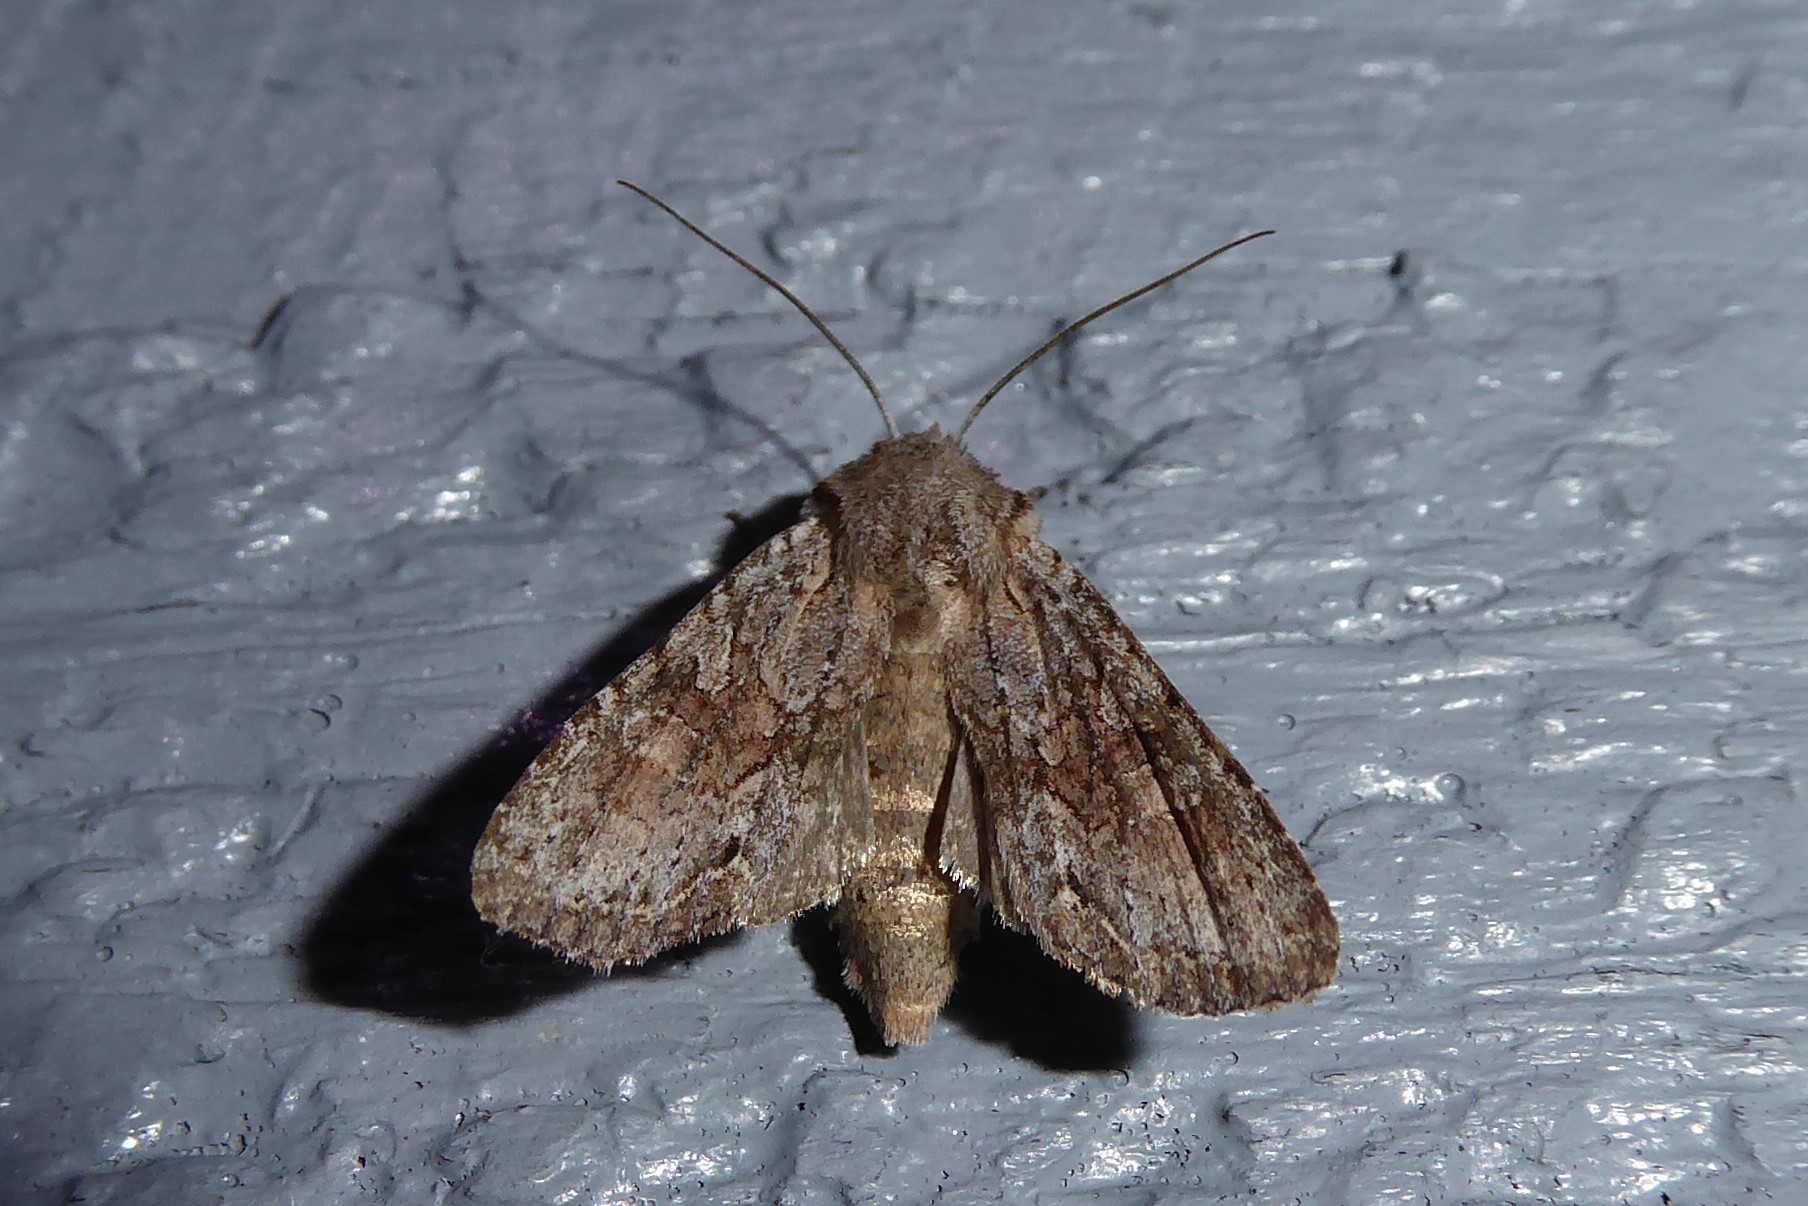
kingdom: Animalia
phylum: Arthropoda
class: Insecta
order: Lepidoptera
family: Noctuidae
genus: Ichneutica
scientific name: Ichneutica mutans
